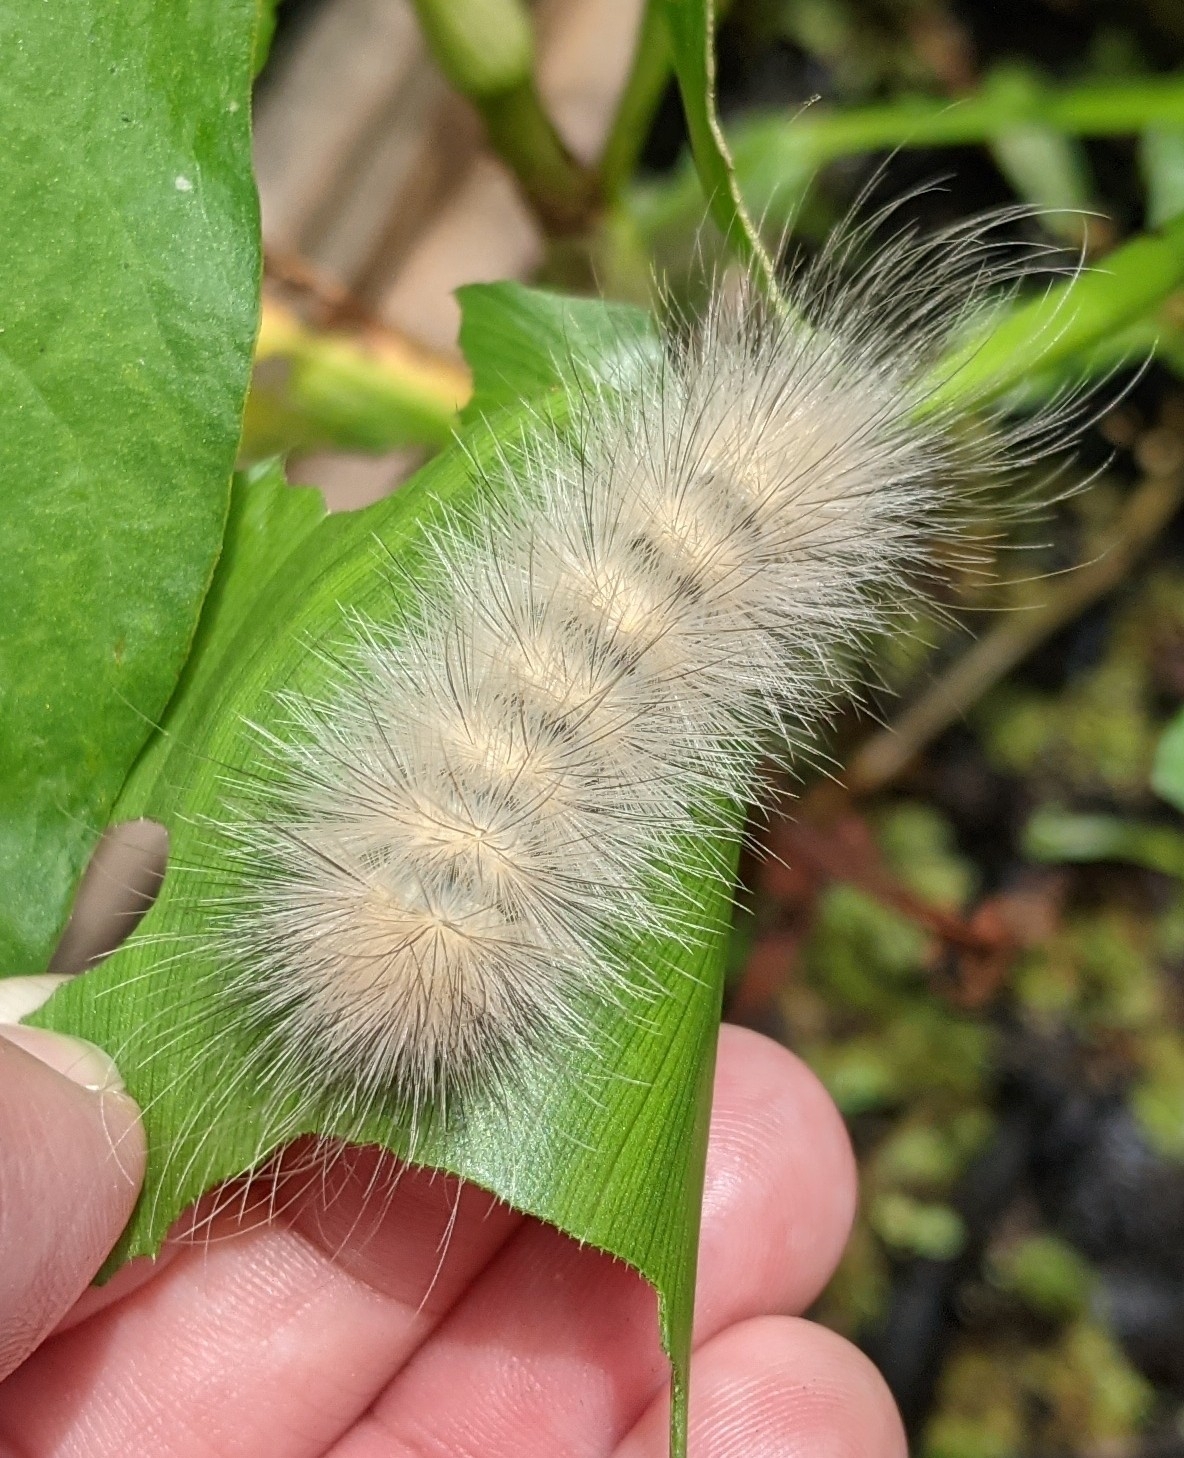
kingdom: Animalia
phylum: Arthropoda
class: Insecta
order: Lepidoptera
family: Erebidae
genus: Spilosoma
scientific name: Spilosoma virginica
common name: Virginia tiger moth
